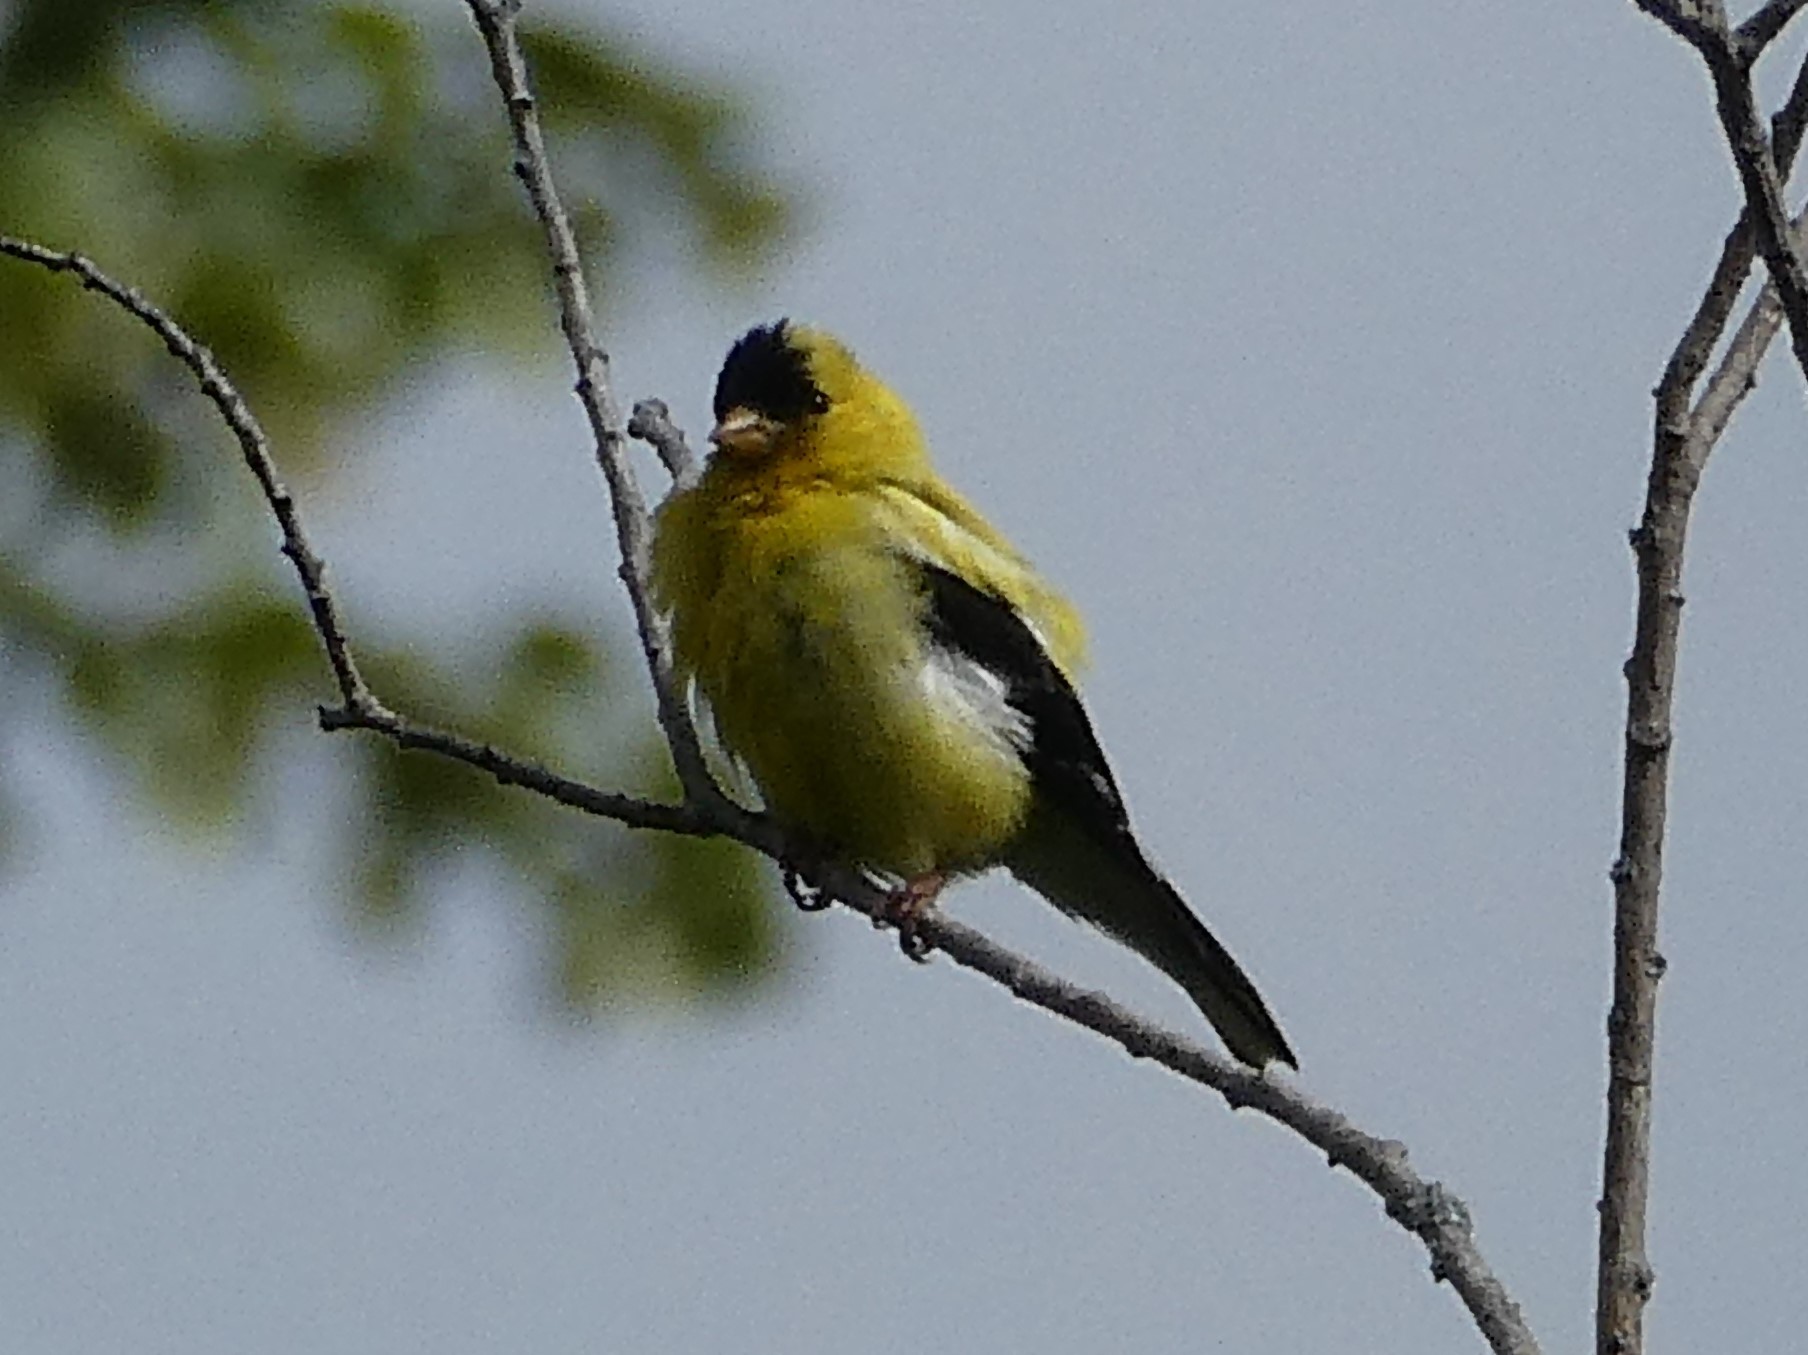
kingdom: Animalia
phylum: Chordata
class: Aves
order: Passeriformes
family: Fringillidae
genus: Spinus
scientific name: Spinus tristis
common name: American goldfinch
